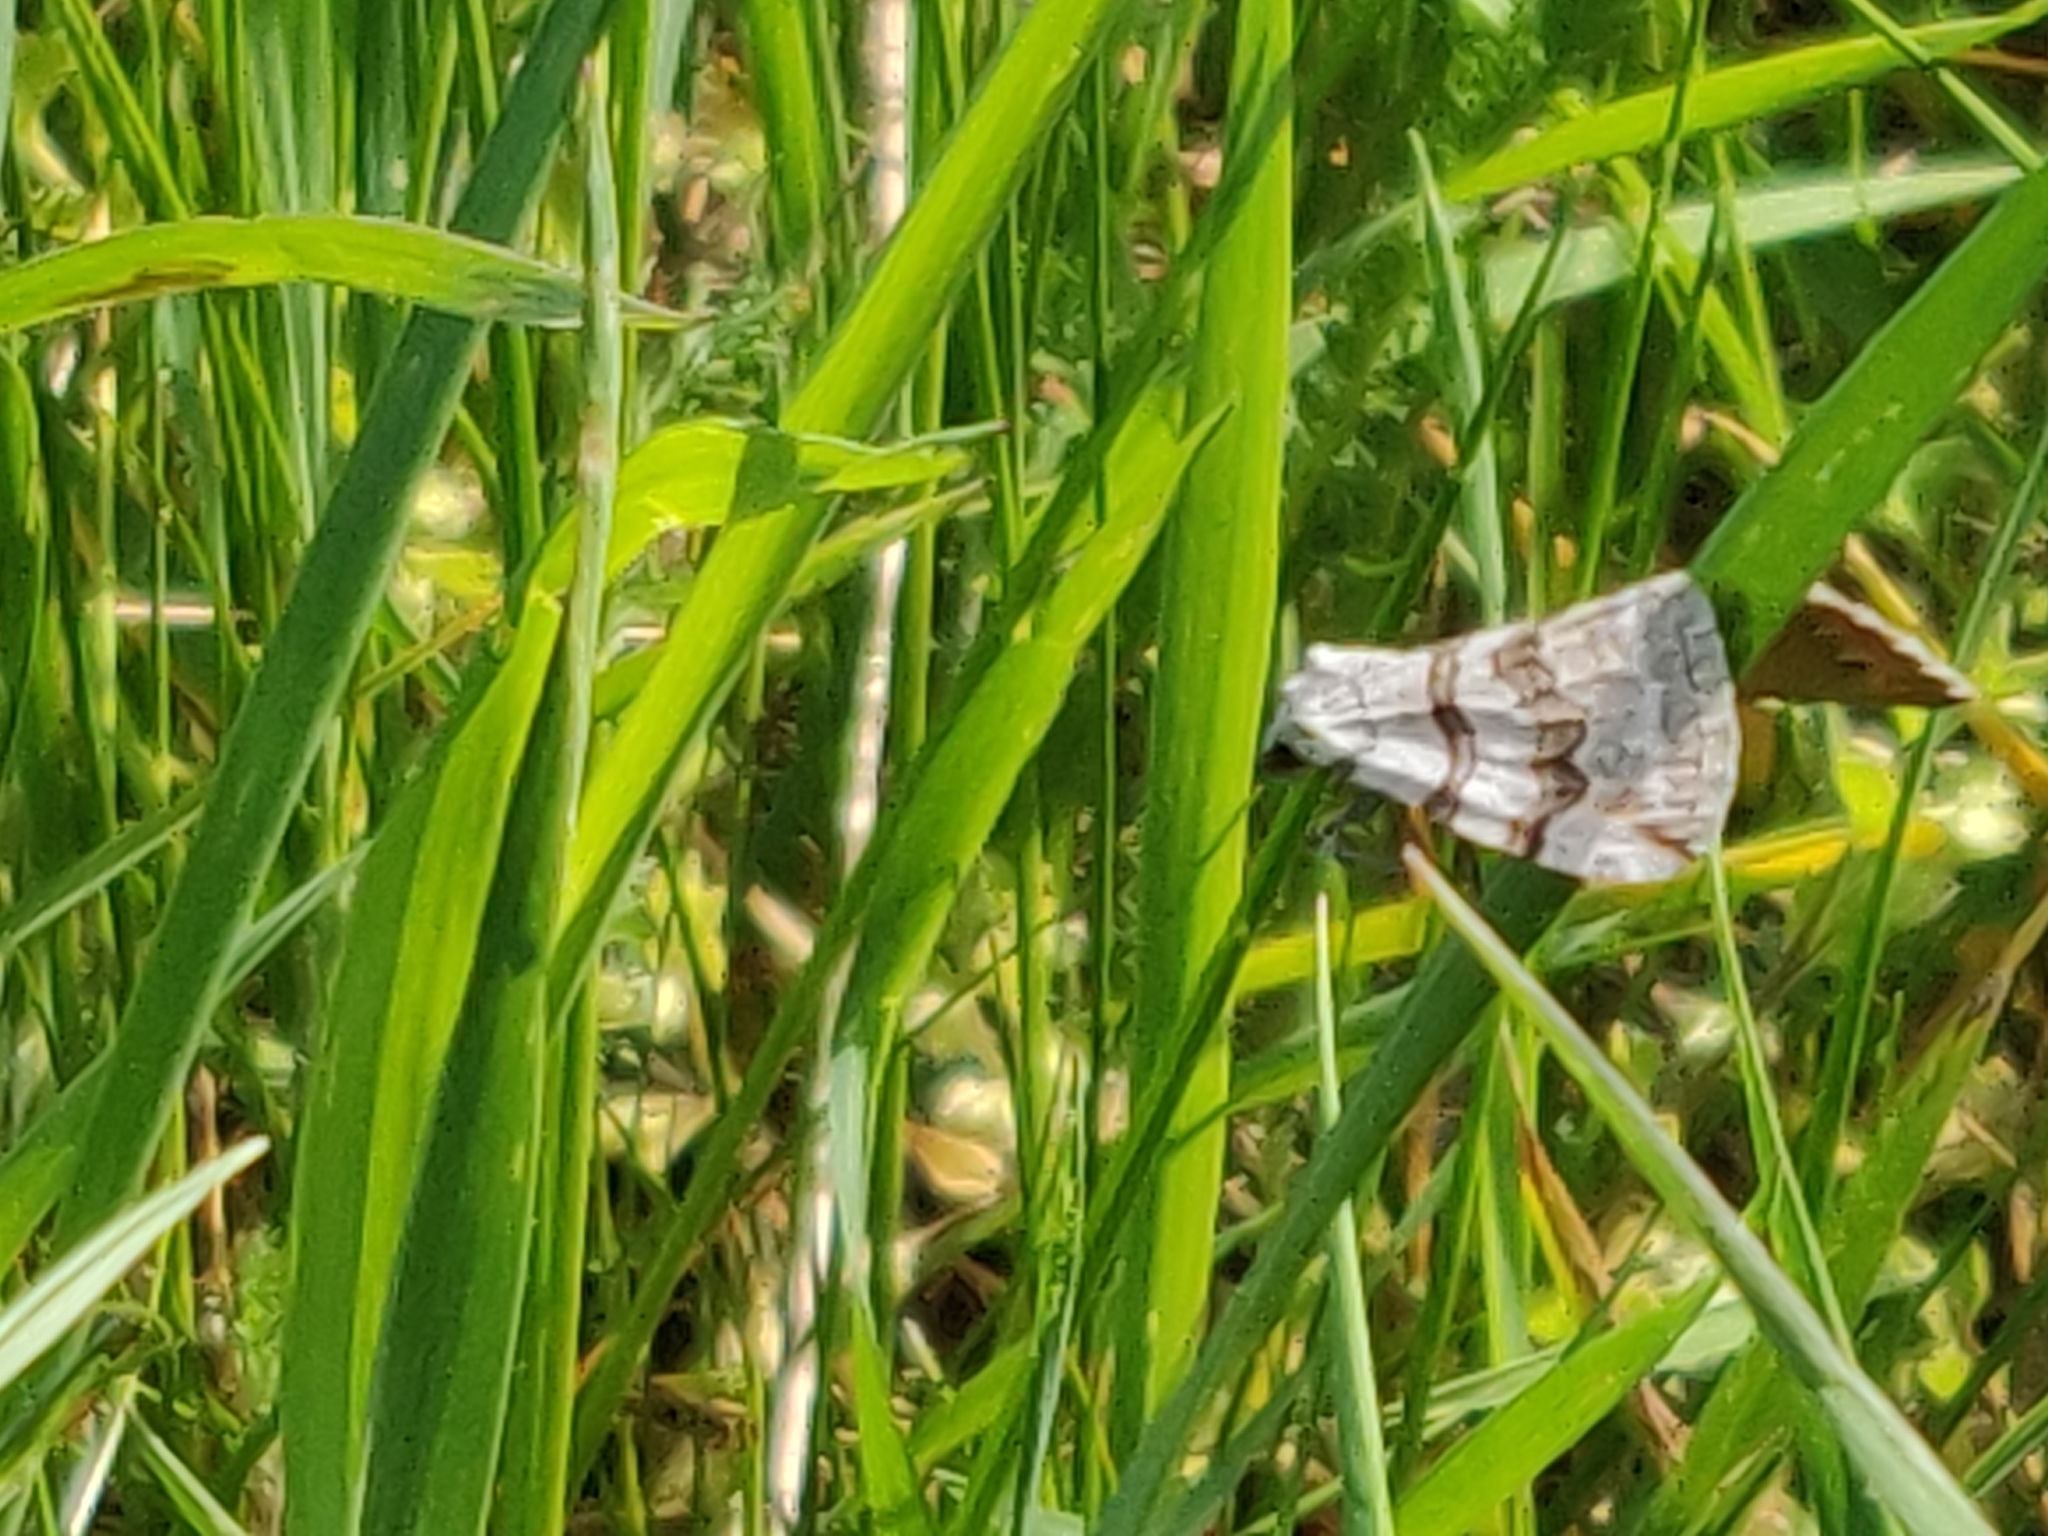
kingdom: Animalia
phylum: Arthropoda
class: Insecta
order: Lepidoptera
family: Geometridae
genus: Carsia
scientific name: Carsia sororiata
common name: Manchester treble-bar
